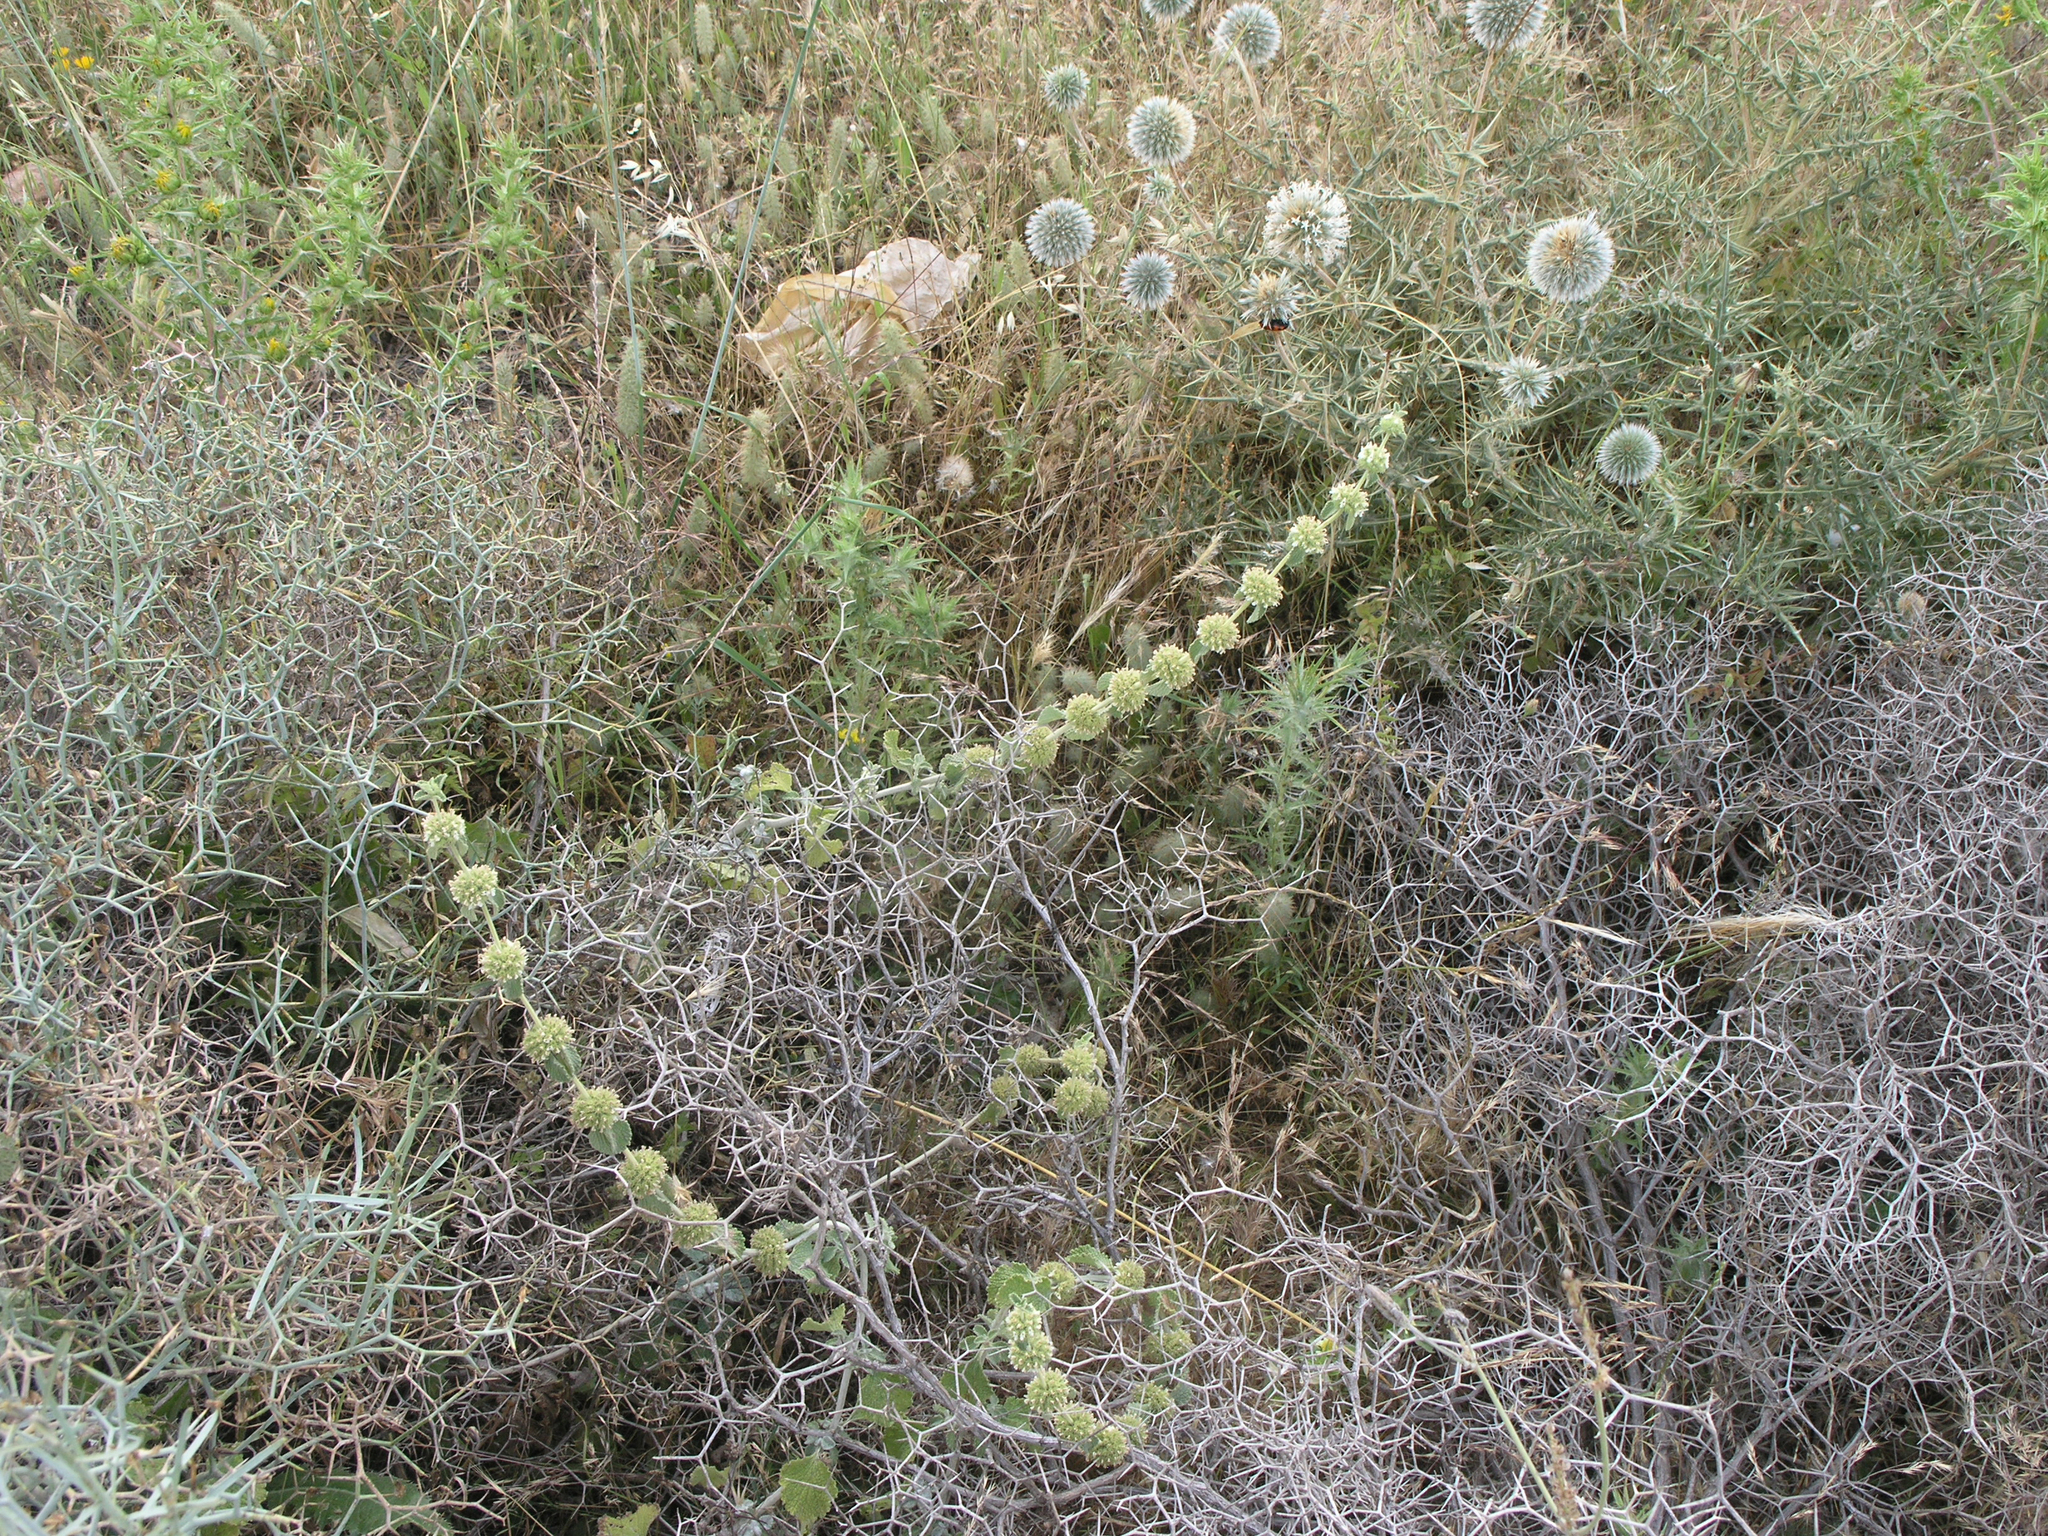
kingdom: Plantae
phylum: Tracheophyta
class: Magnoliopsida
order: Lamiales
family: Lamiaceae
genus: Marrubium
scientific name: Marrubium vulgare
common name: Horehound
